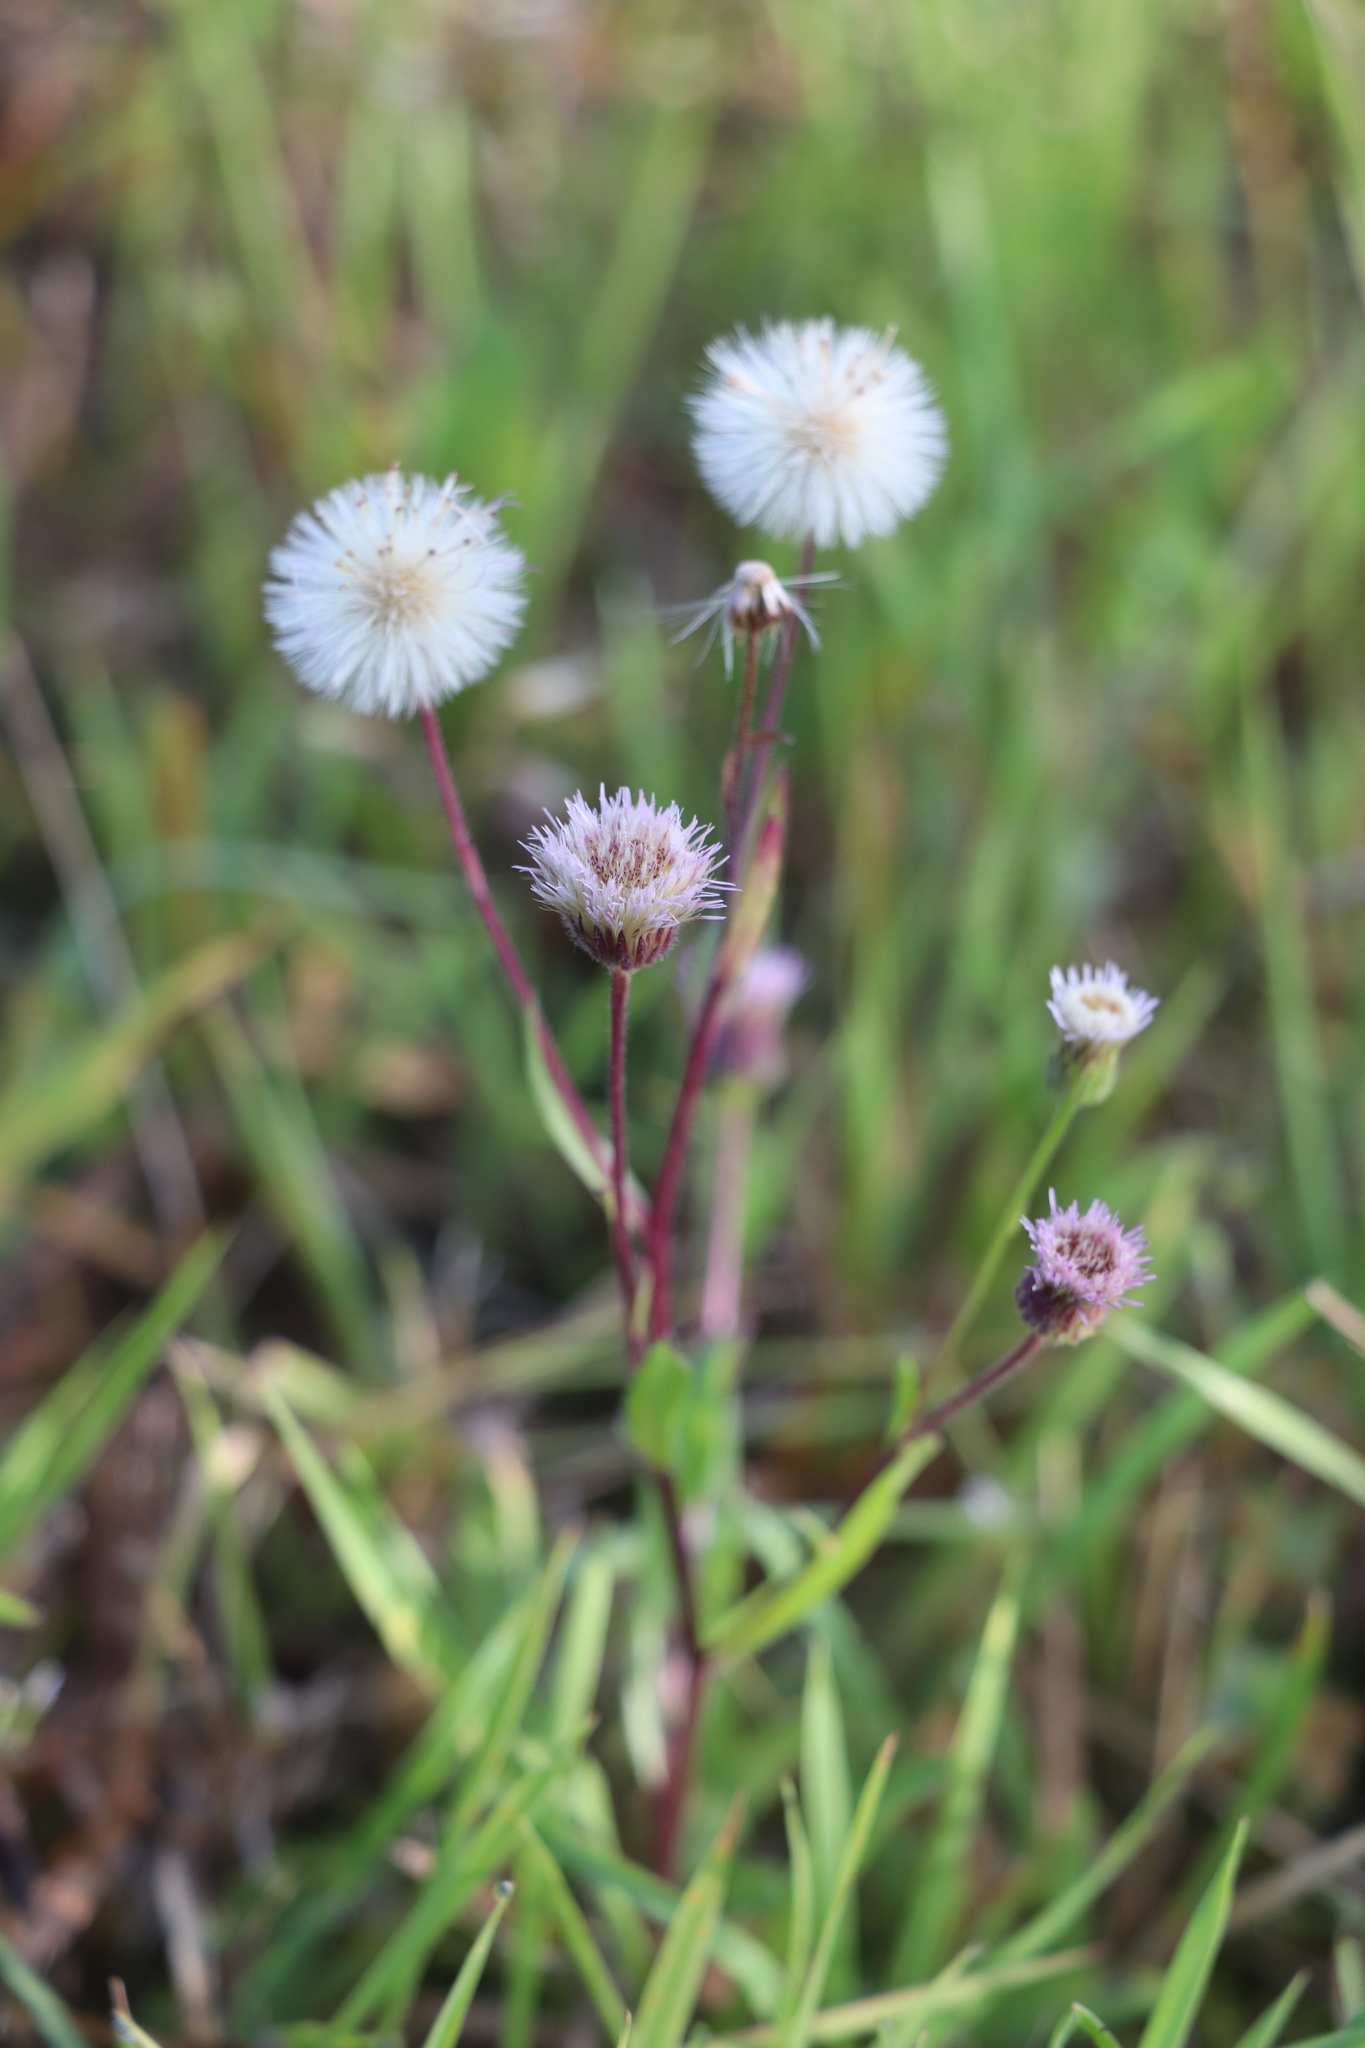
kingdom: Plantae
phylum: Tracheophyta
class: Magnoliopsida
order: Asterales
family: Asteraceae
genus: Erigeron
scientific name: Erigeron acris
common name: Blue fleabane
